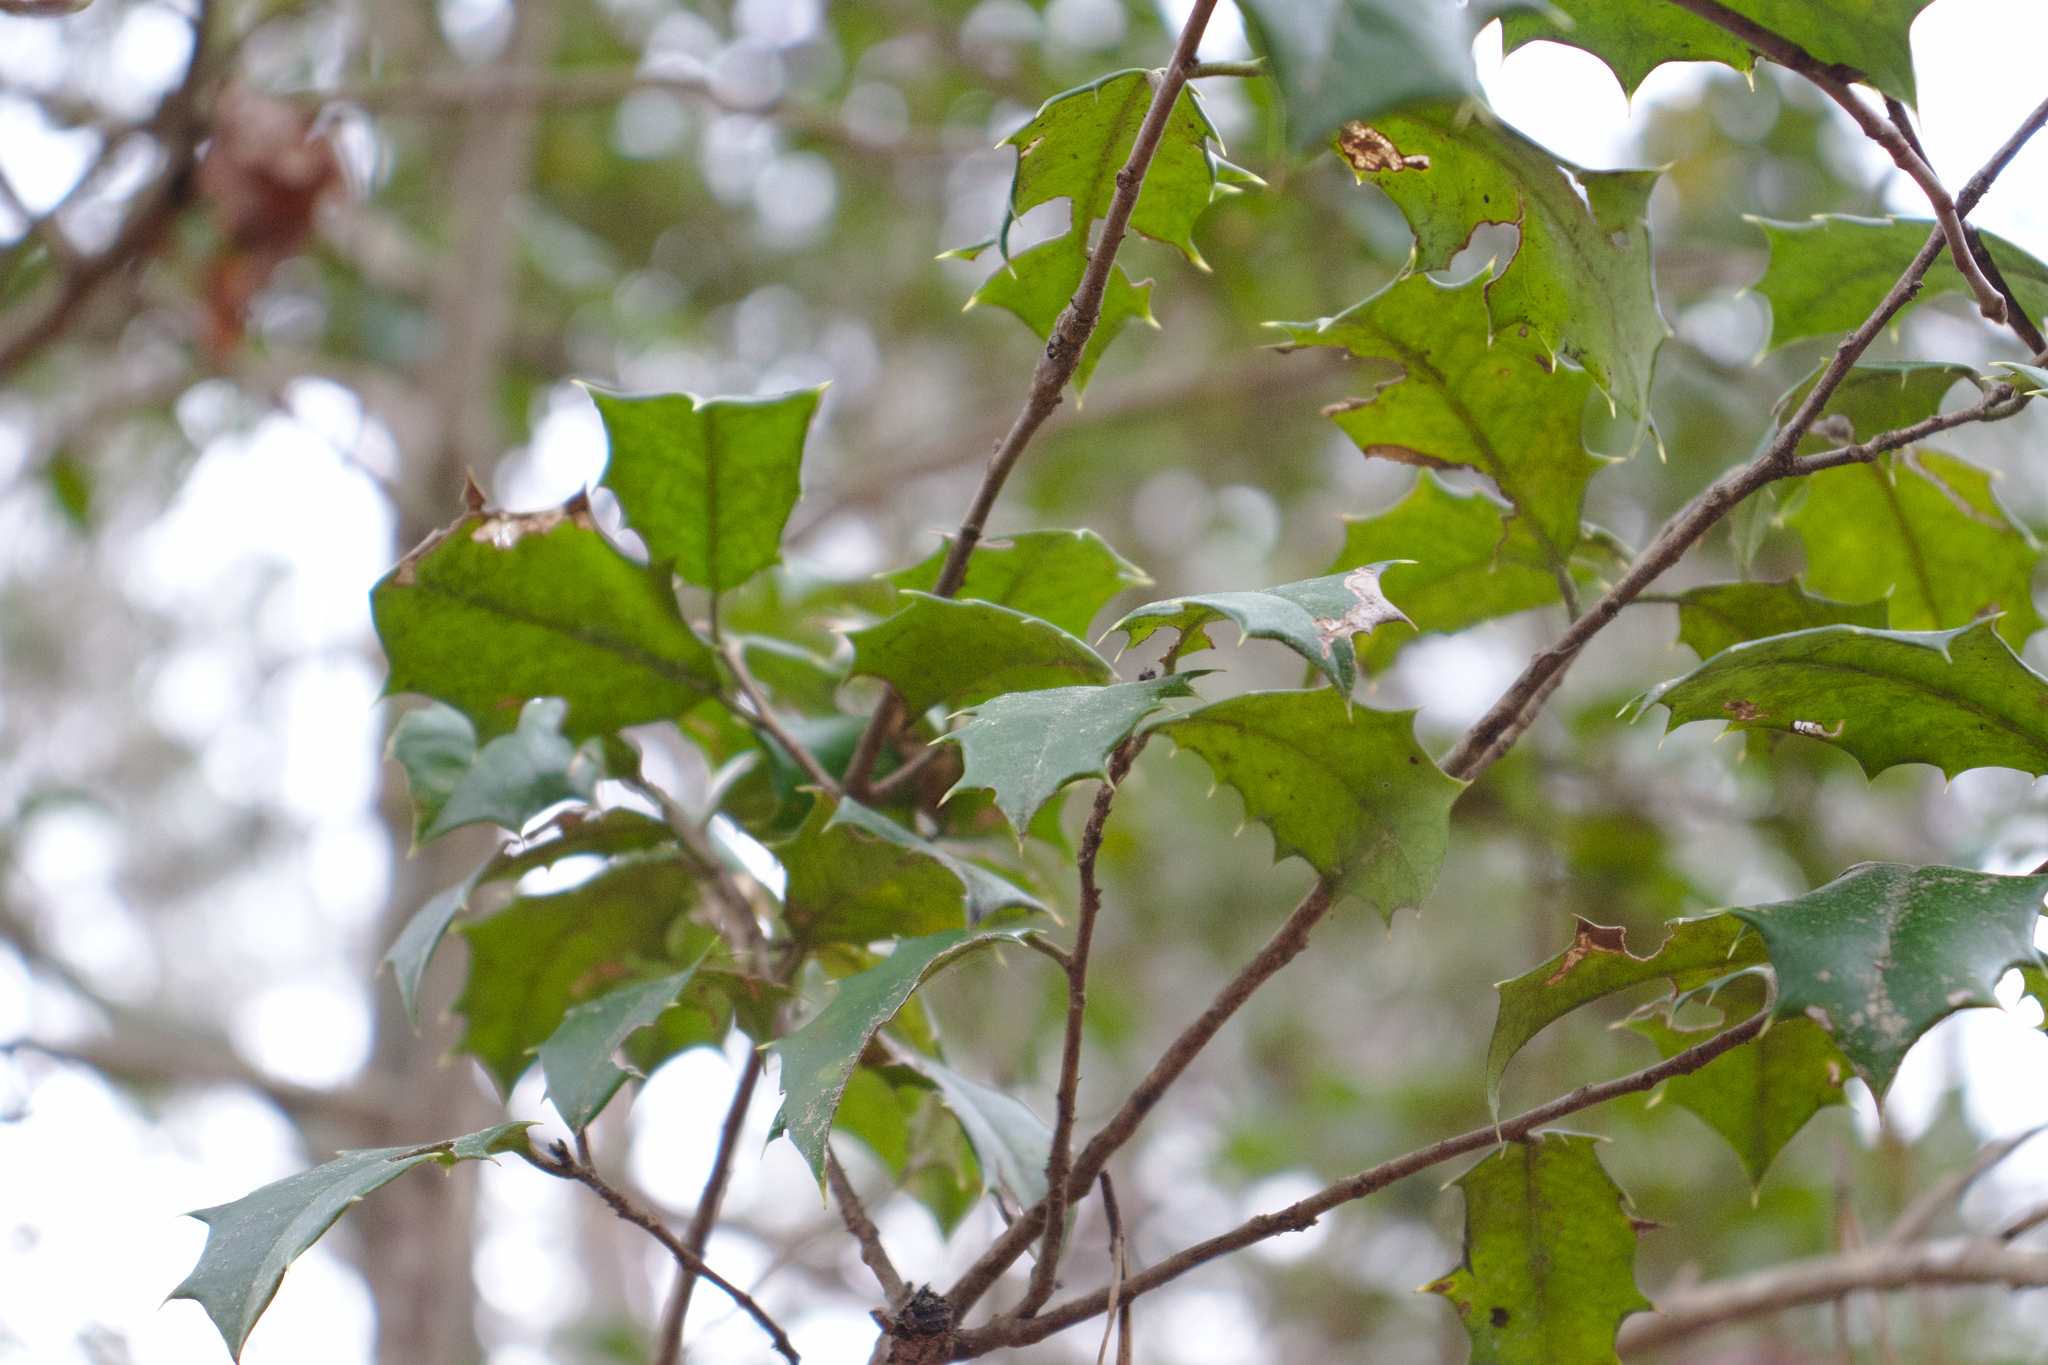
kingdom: Plantae
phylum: Tracheophyta
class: Magnoliopsida
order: Aquifoliales
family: Aquifoliaceae
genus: Ilex
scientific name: Ilex opaca
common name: American holly
